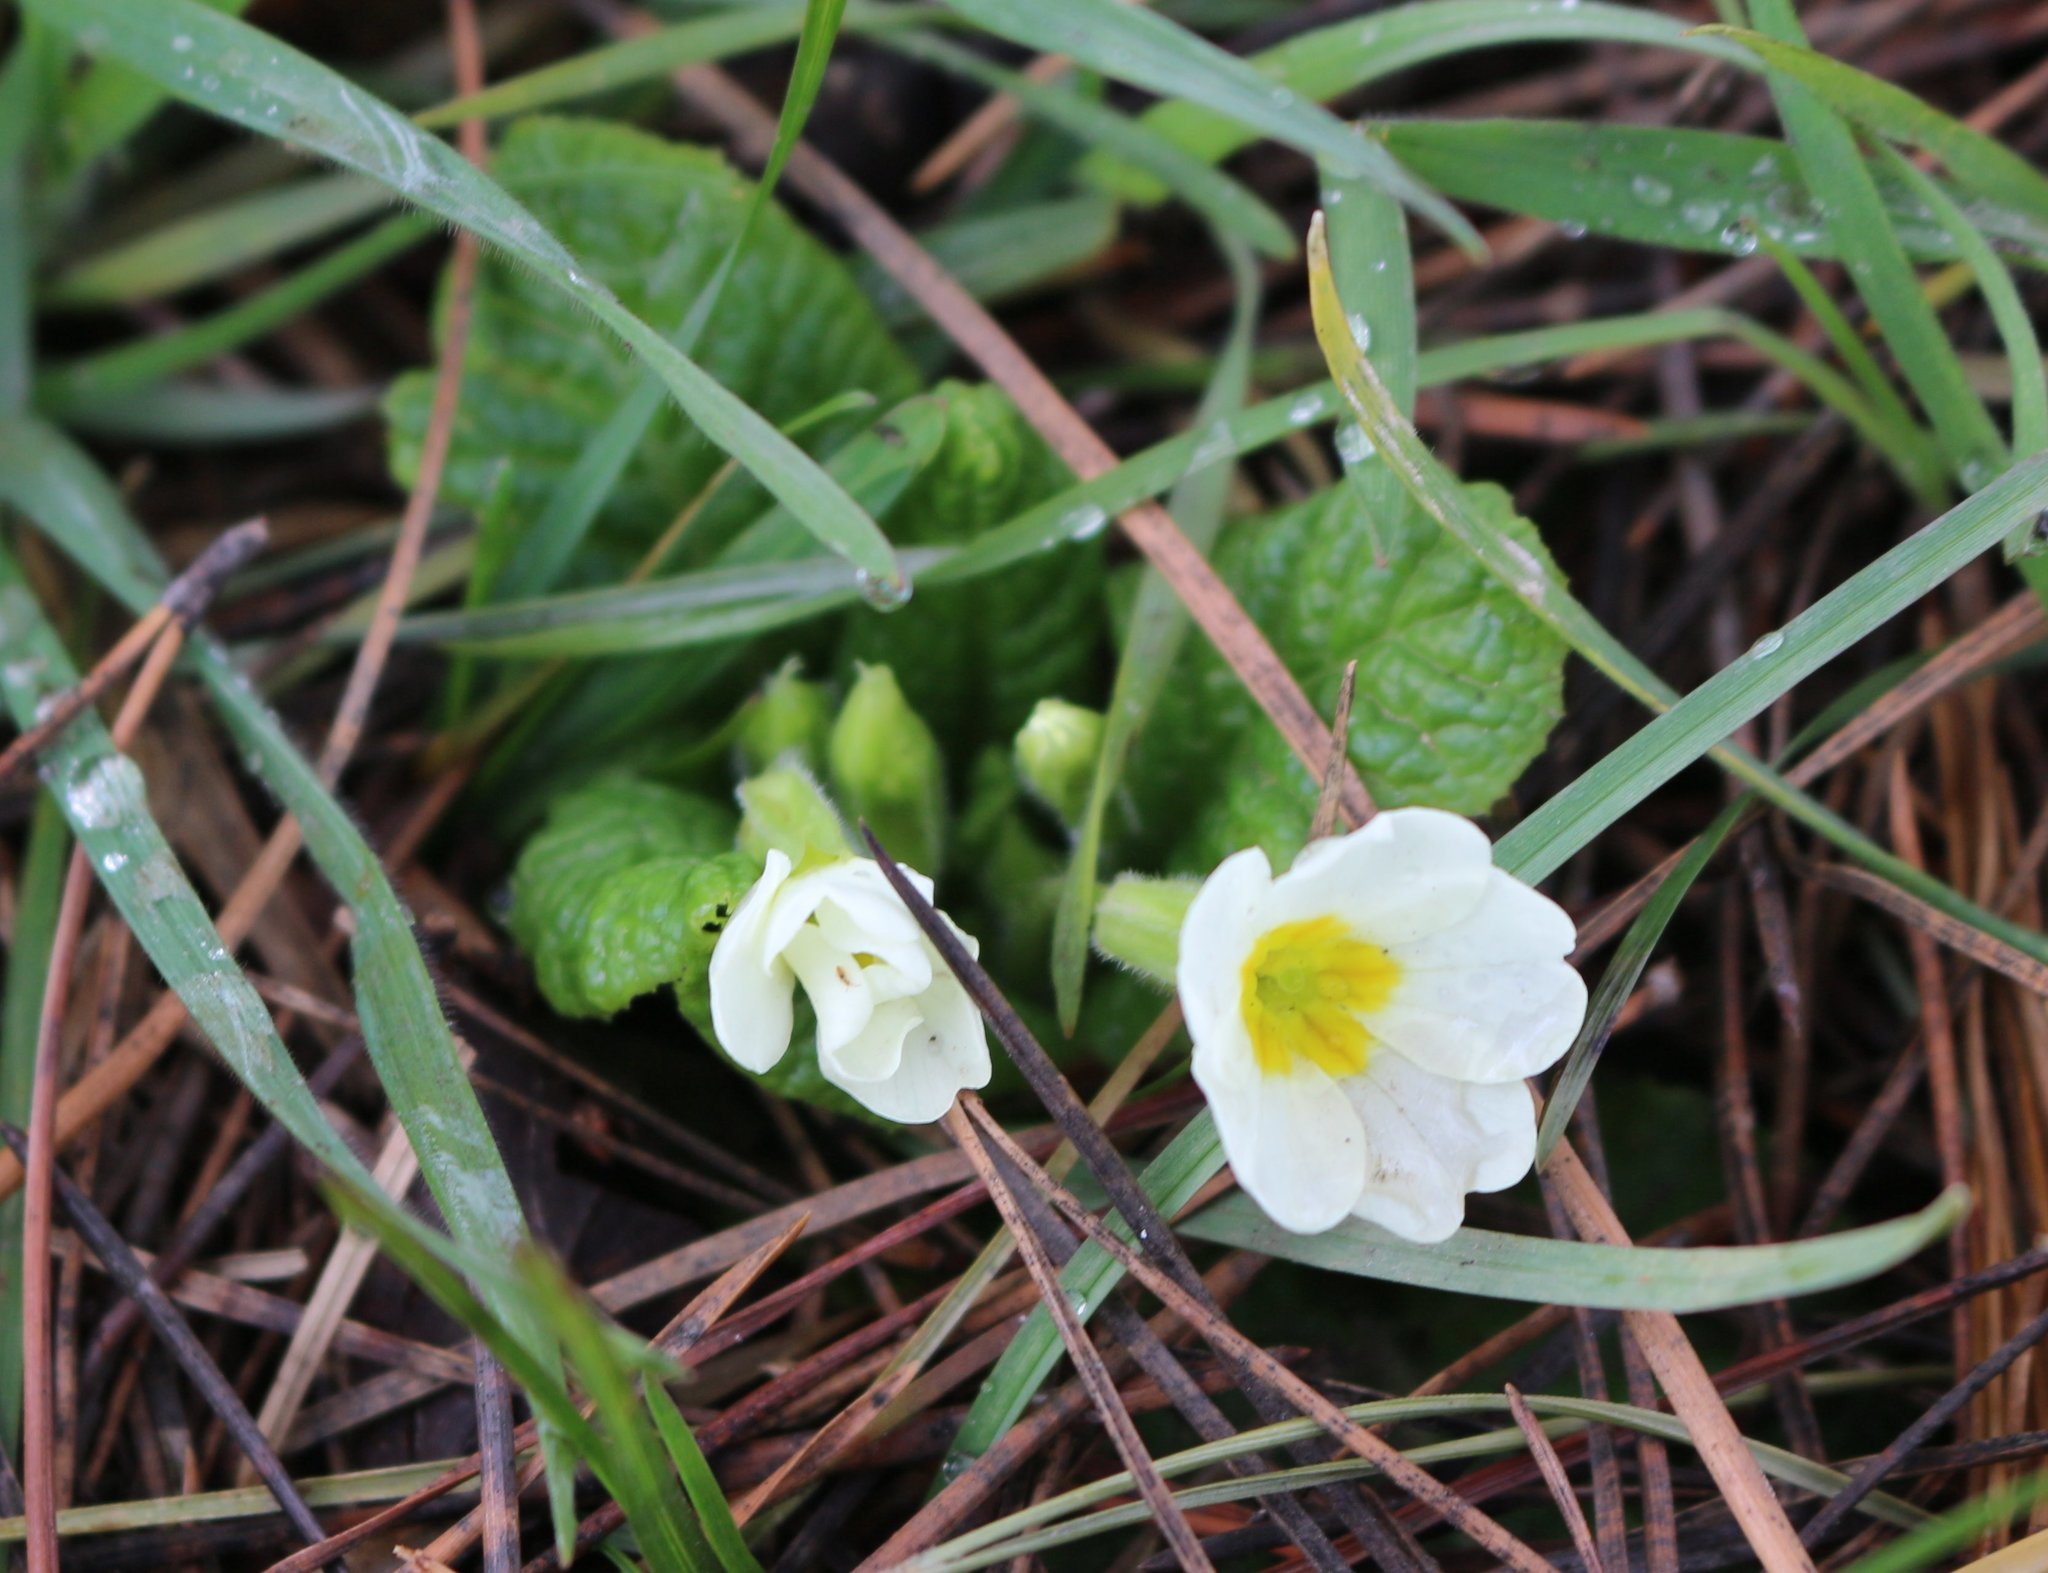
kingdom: Plantae
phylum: Tracheophyta
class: Magnoliopsida
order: Ericales
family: Primulaceae
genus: Primula
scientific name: Primula vulgaris
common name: Primrose
